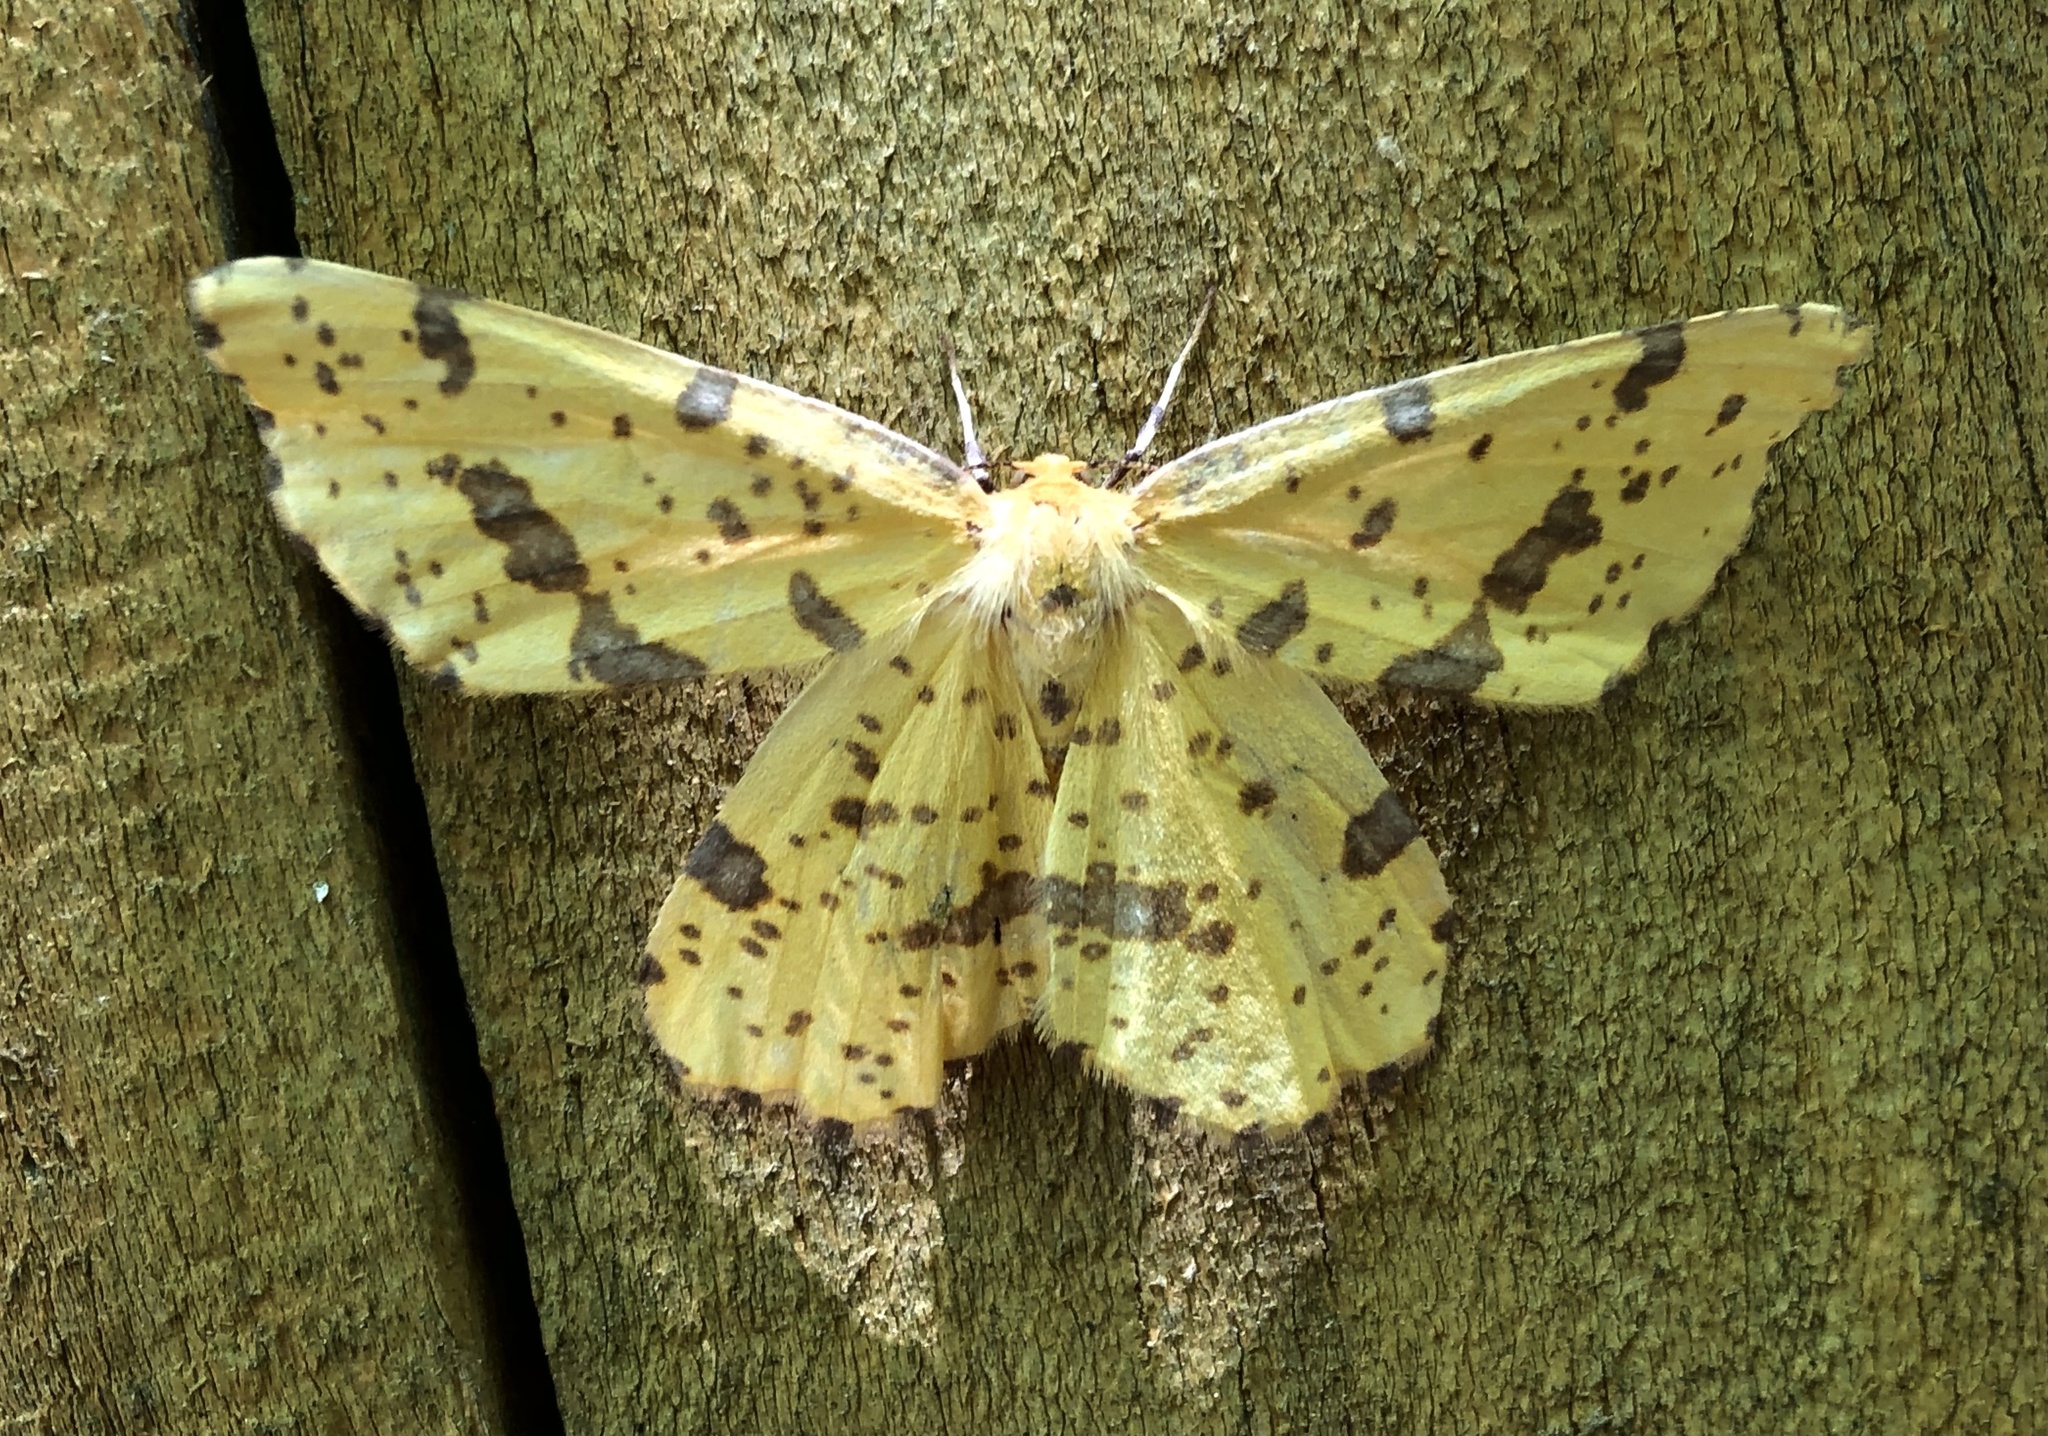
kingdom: Animalia
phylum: Arthropoda
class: Insecta
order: Lepidoptera
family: Geometridae
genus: Xanthotype
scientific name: Xanthotype
